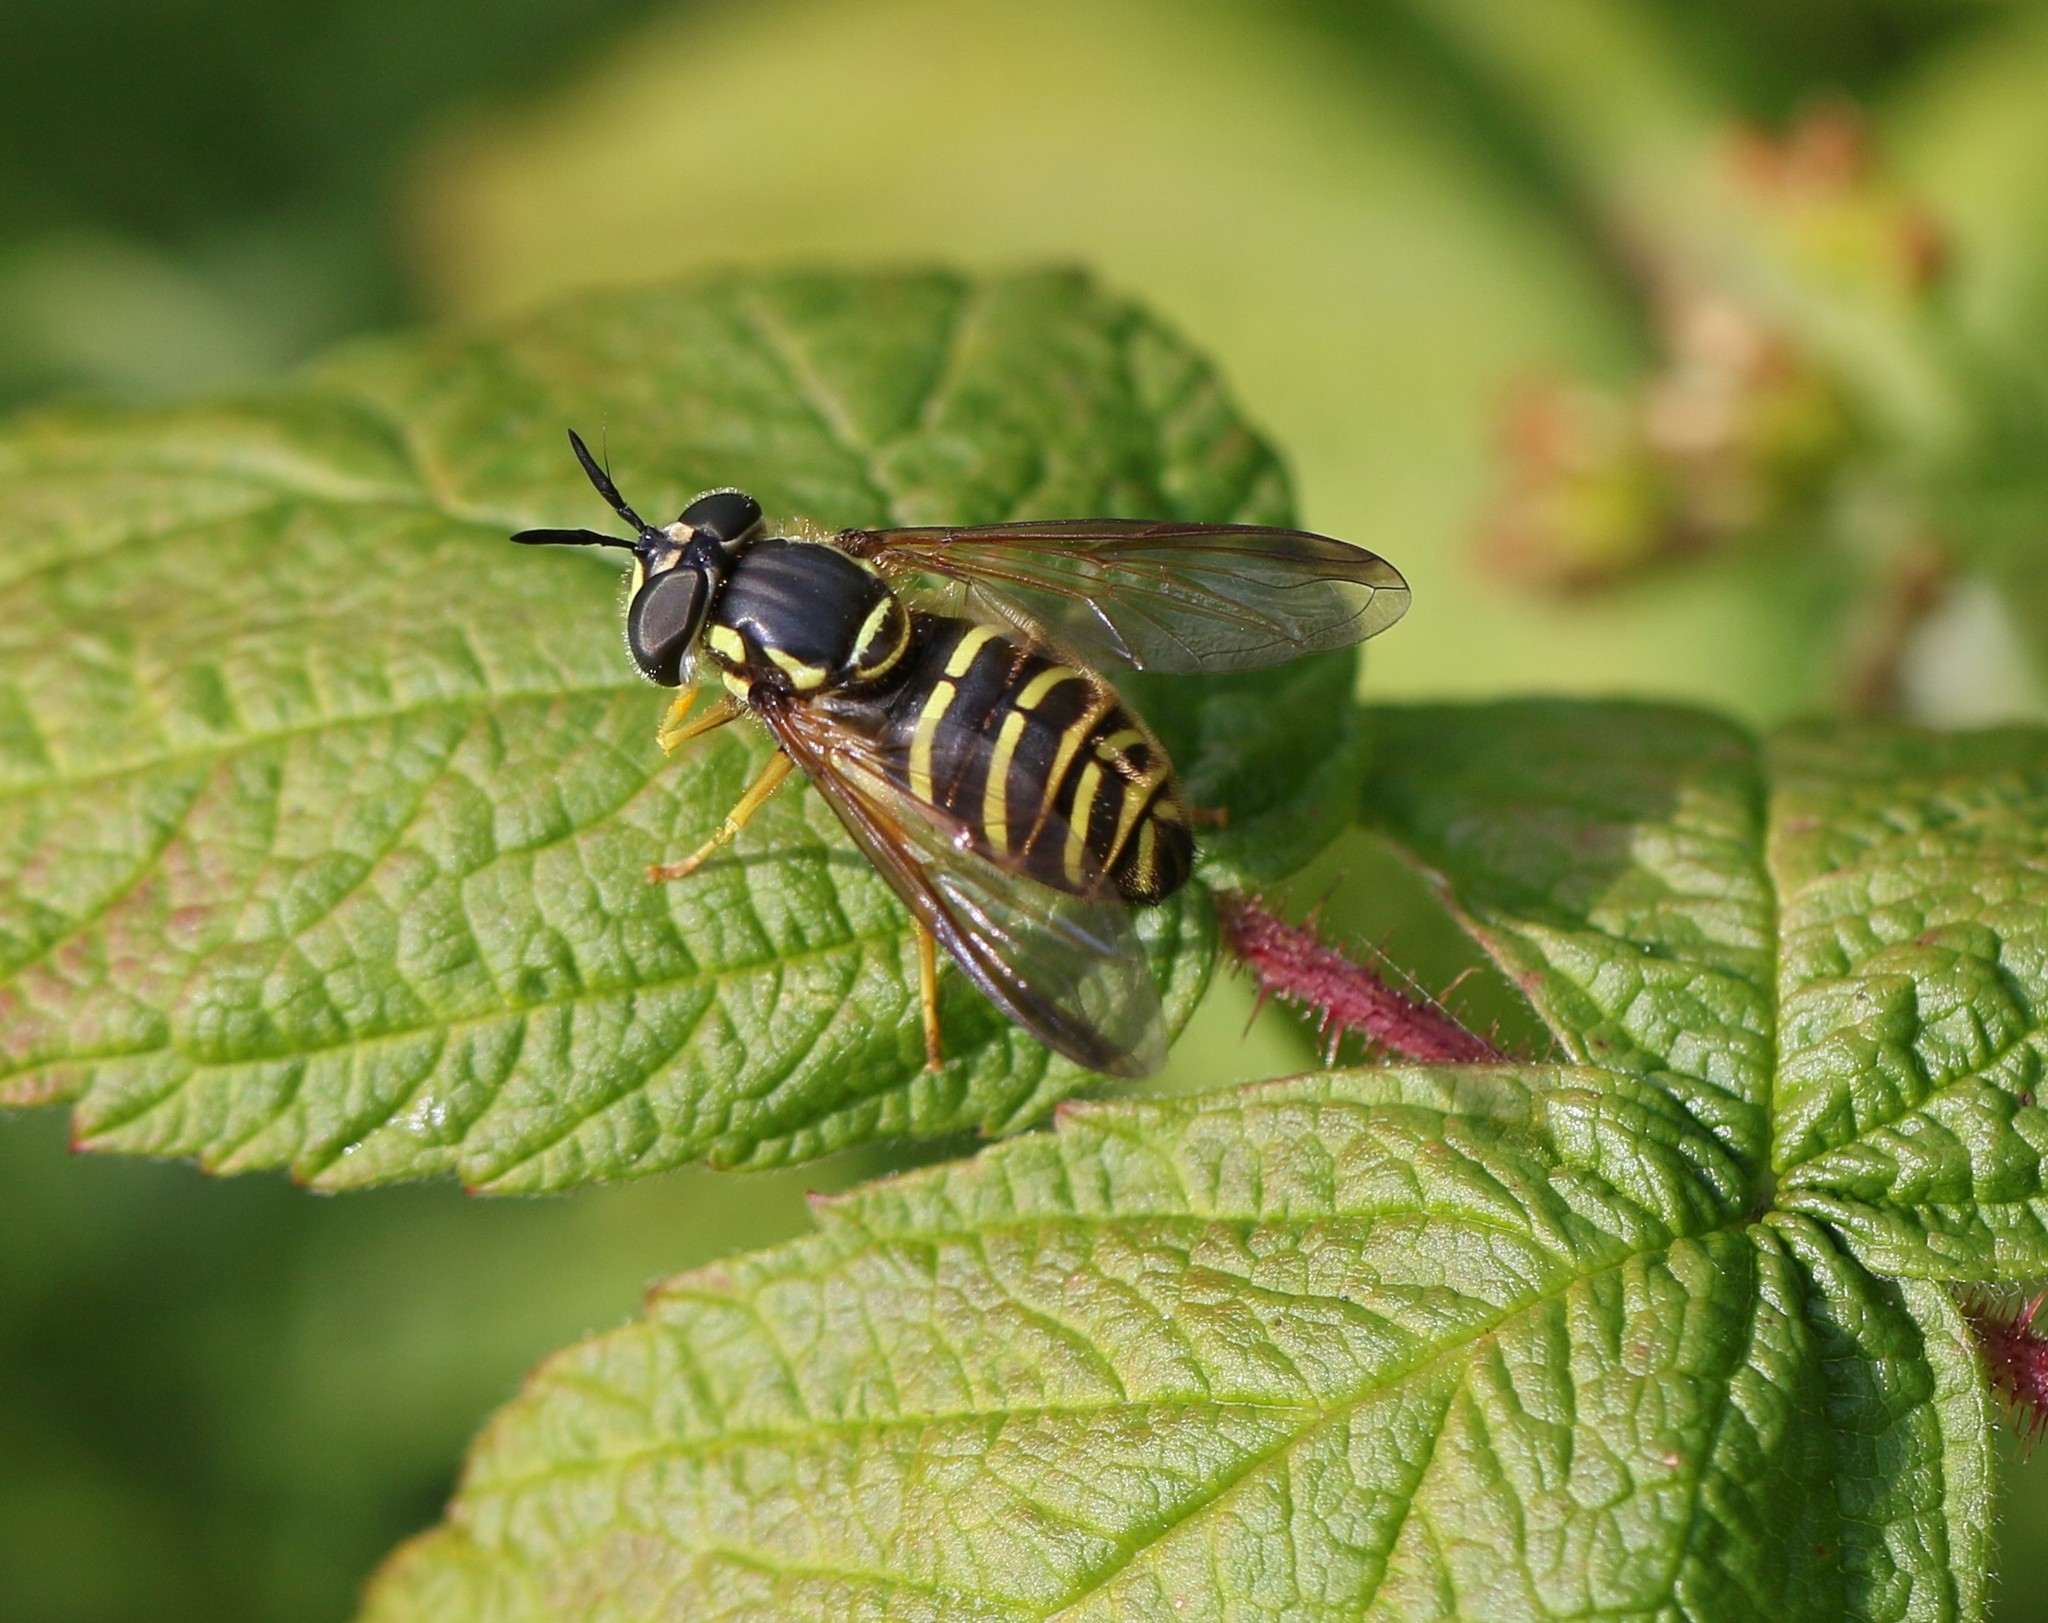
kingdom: Animalia
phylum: Arthropoda
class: Insecta
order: Diptera
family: Syrphidae
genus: Chrysotoxum
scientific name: Chrysotoxum plumeum
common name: Broad-banded meadowfly
